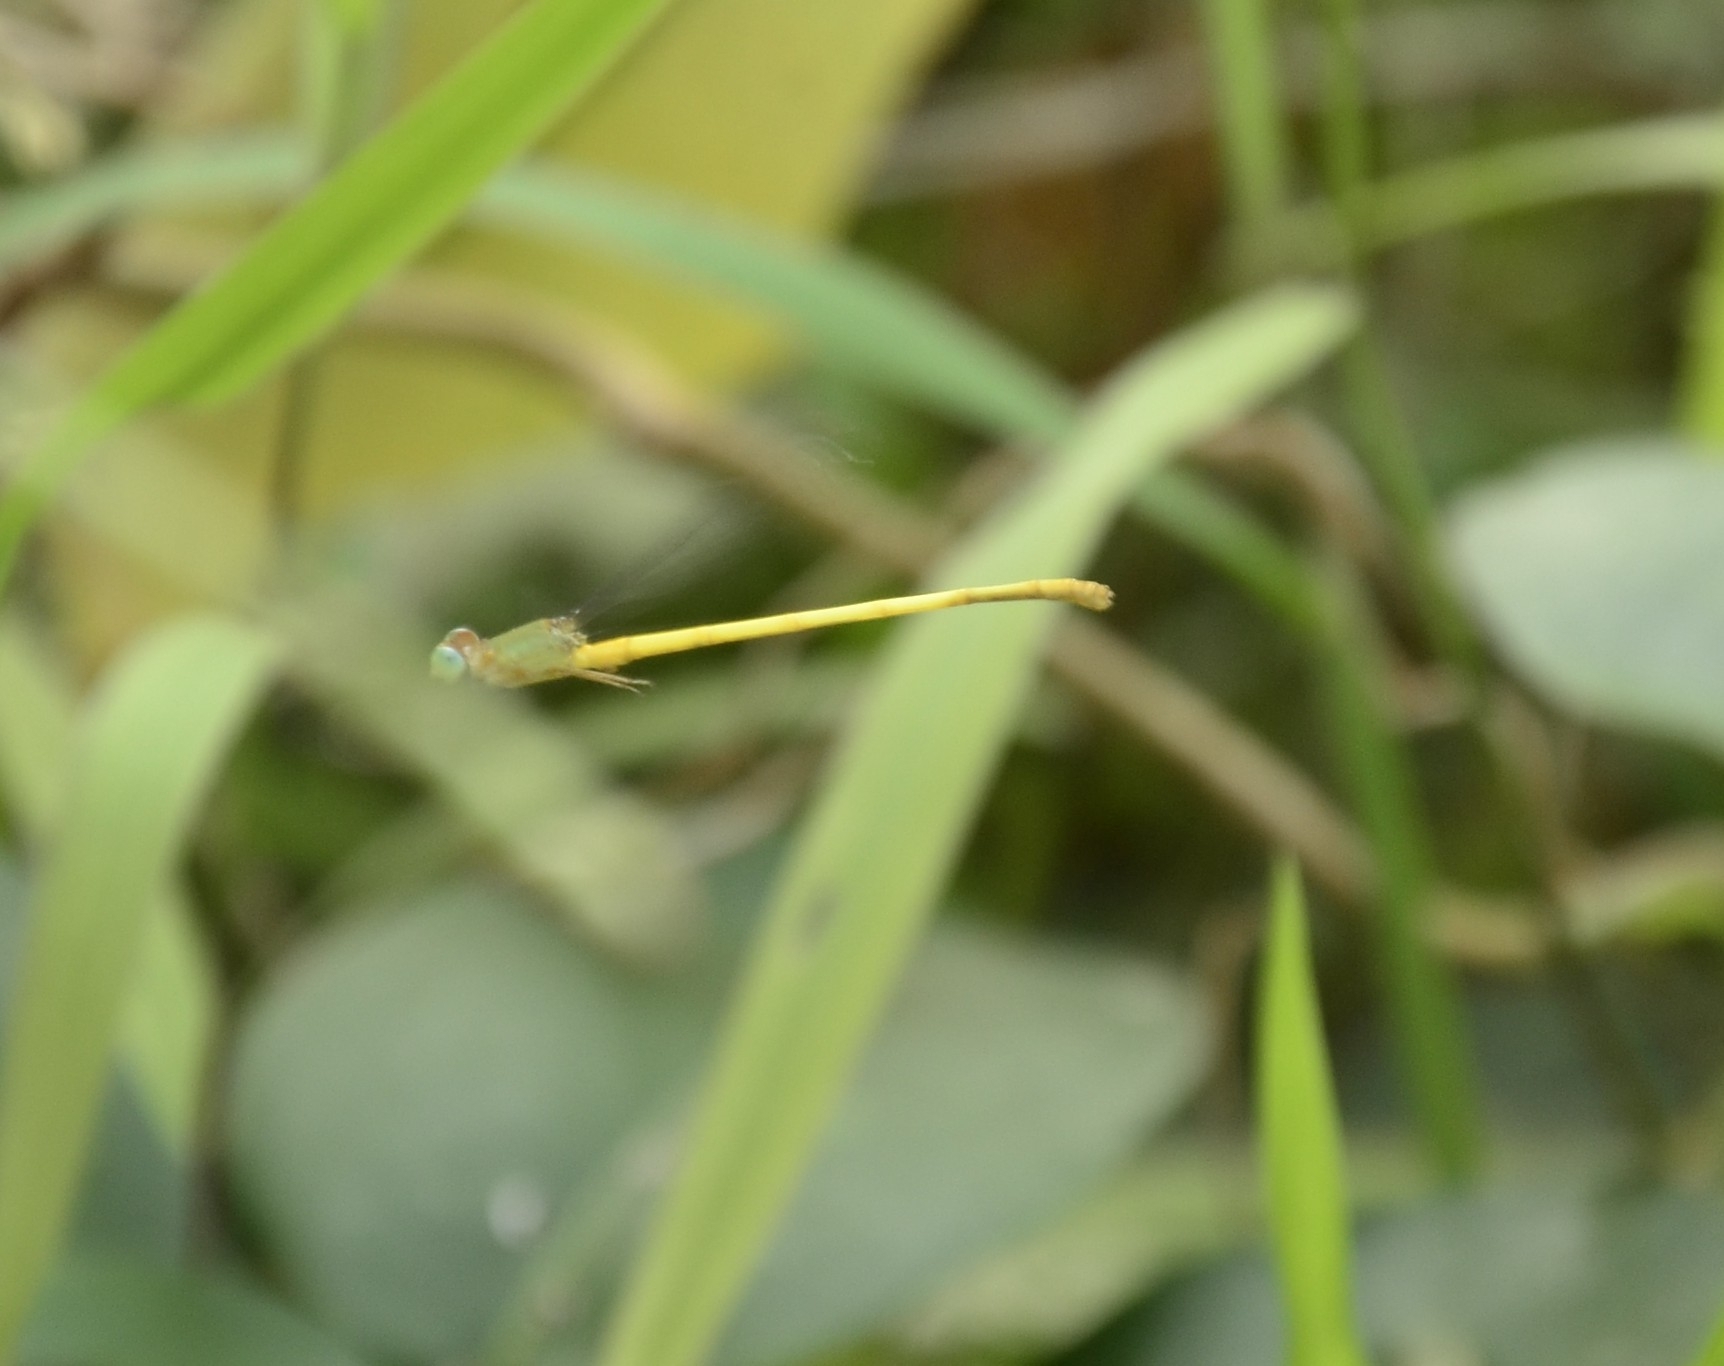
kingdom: Animalia
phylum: Arthropoda
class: Insecta
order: Odonata
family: Coenagrionidae
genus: Ceriagrion
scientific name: Ceriagrion coromandelianum
